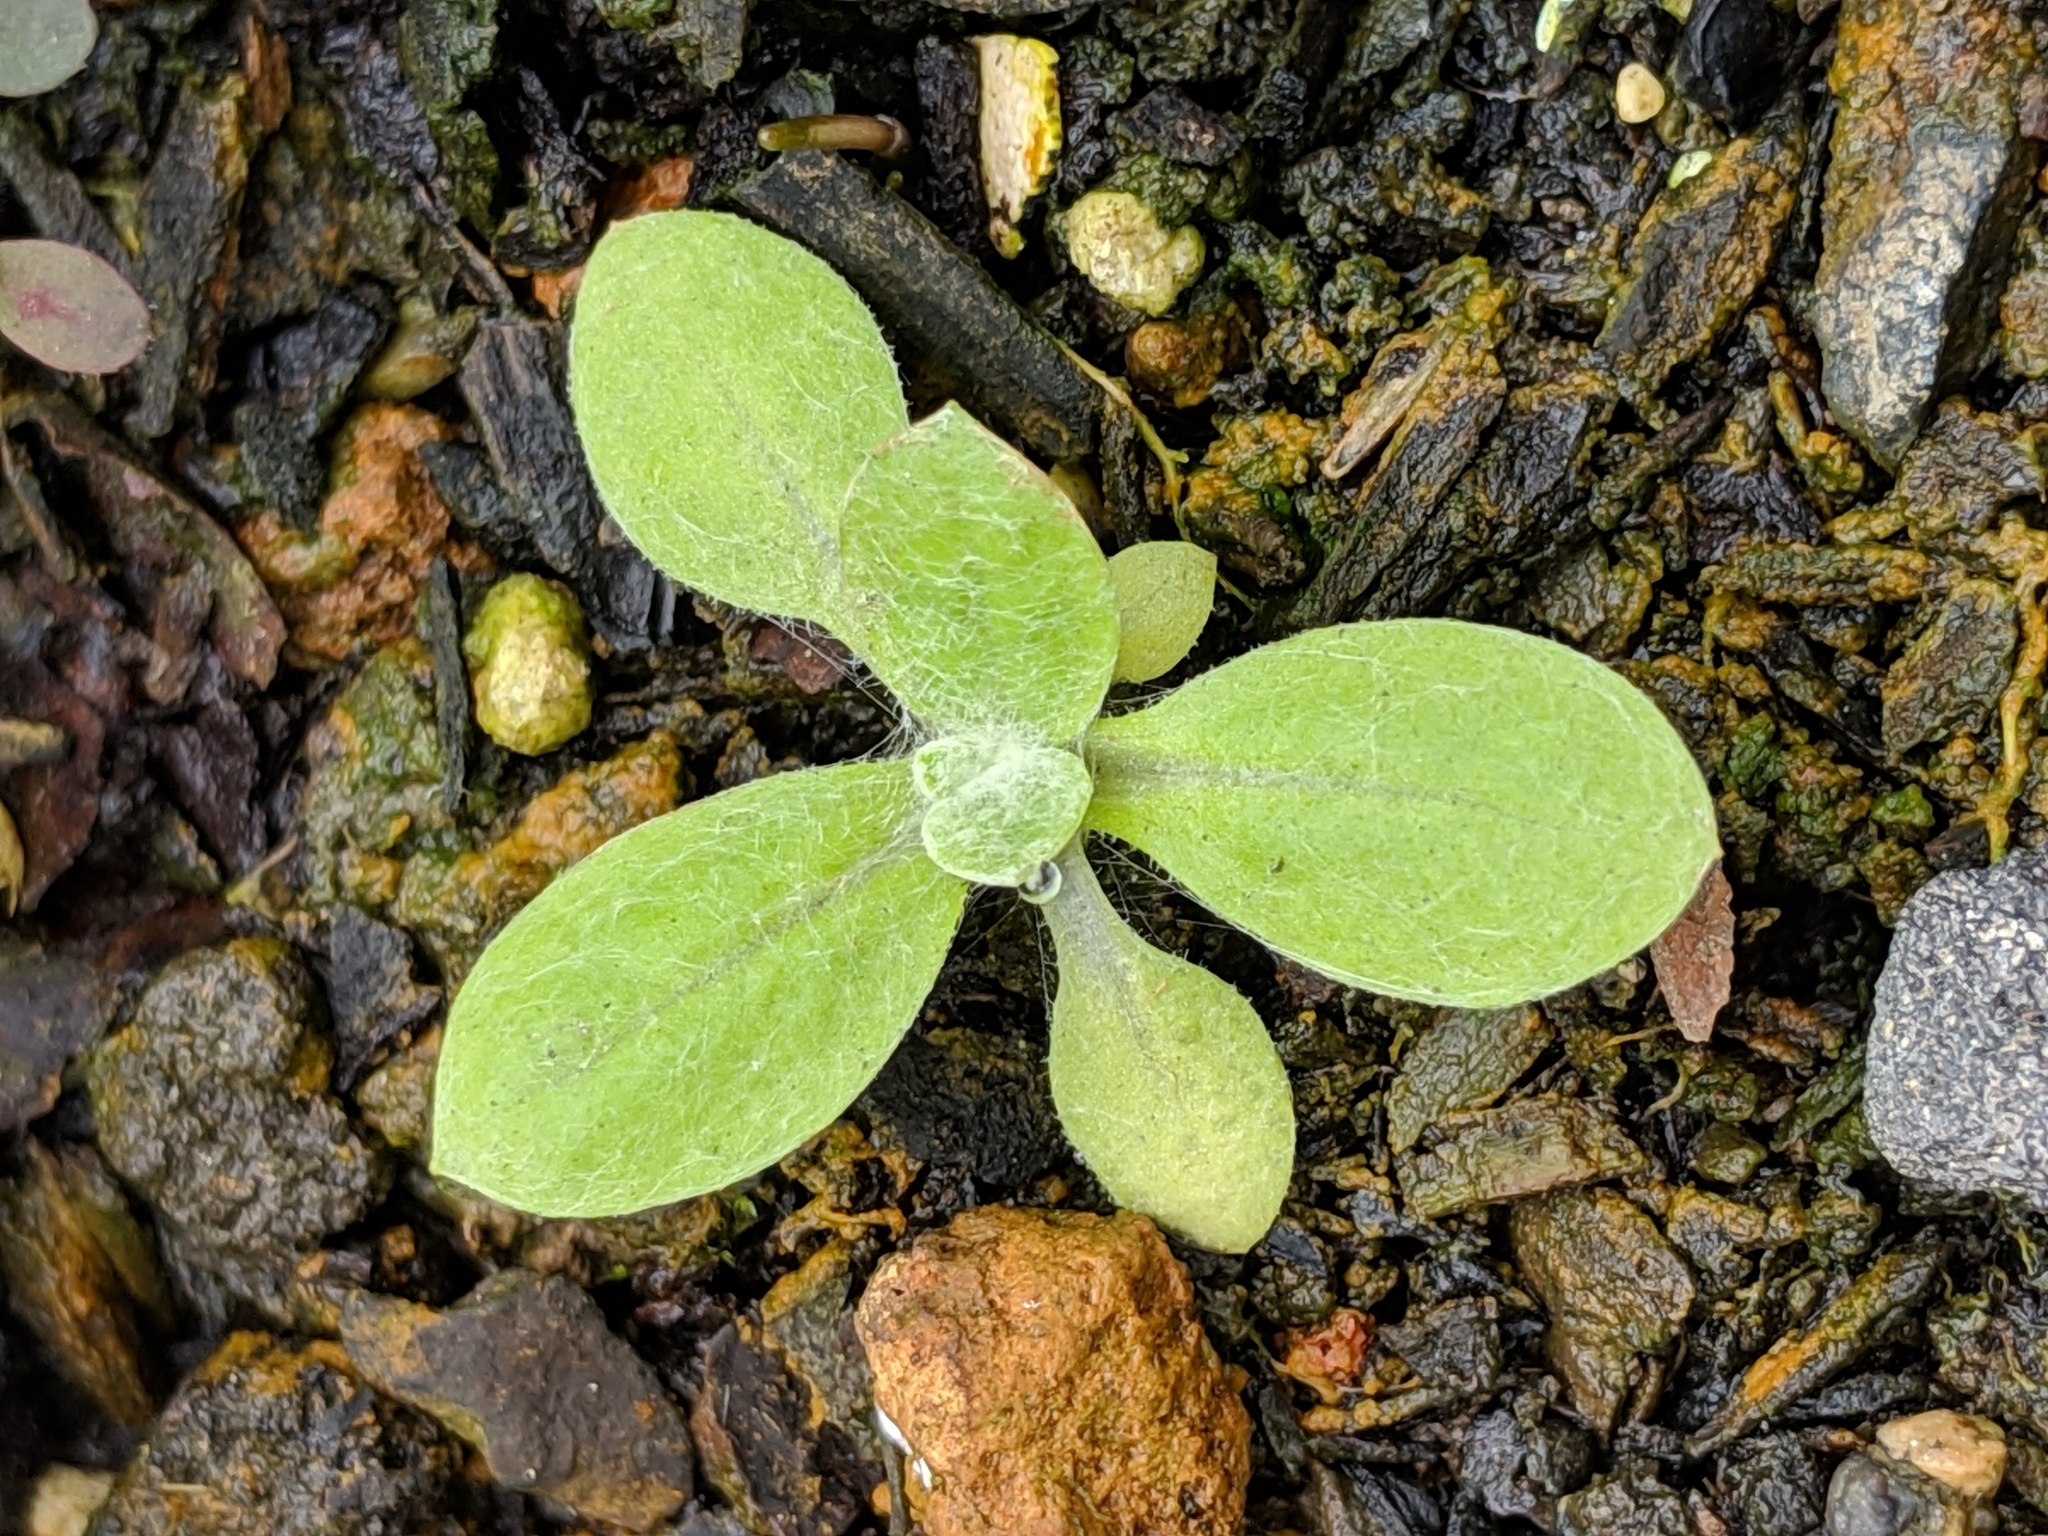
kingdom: Plantae
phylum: Tracheophyta
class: Magnoliopsida
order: Asterales
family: Asteraceae
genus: Helichrysum
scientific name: Helichrysum luteoalbum
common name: Daisy
